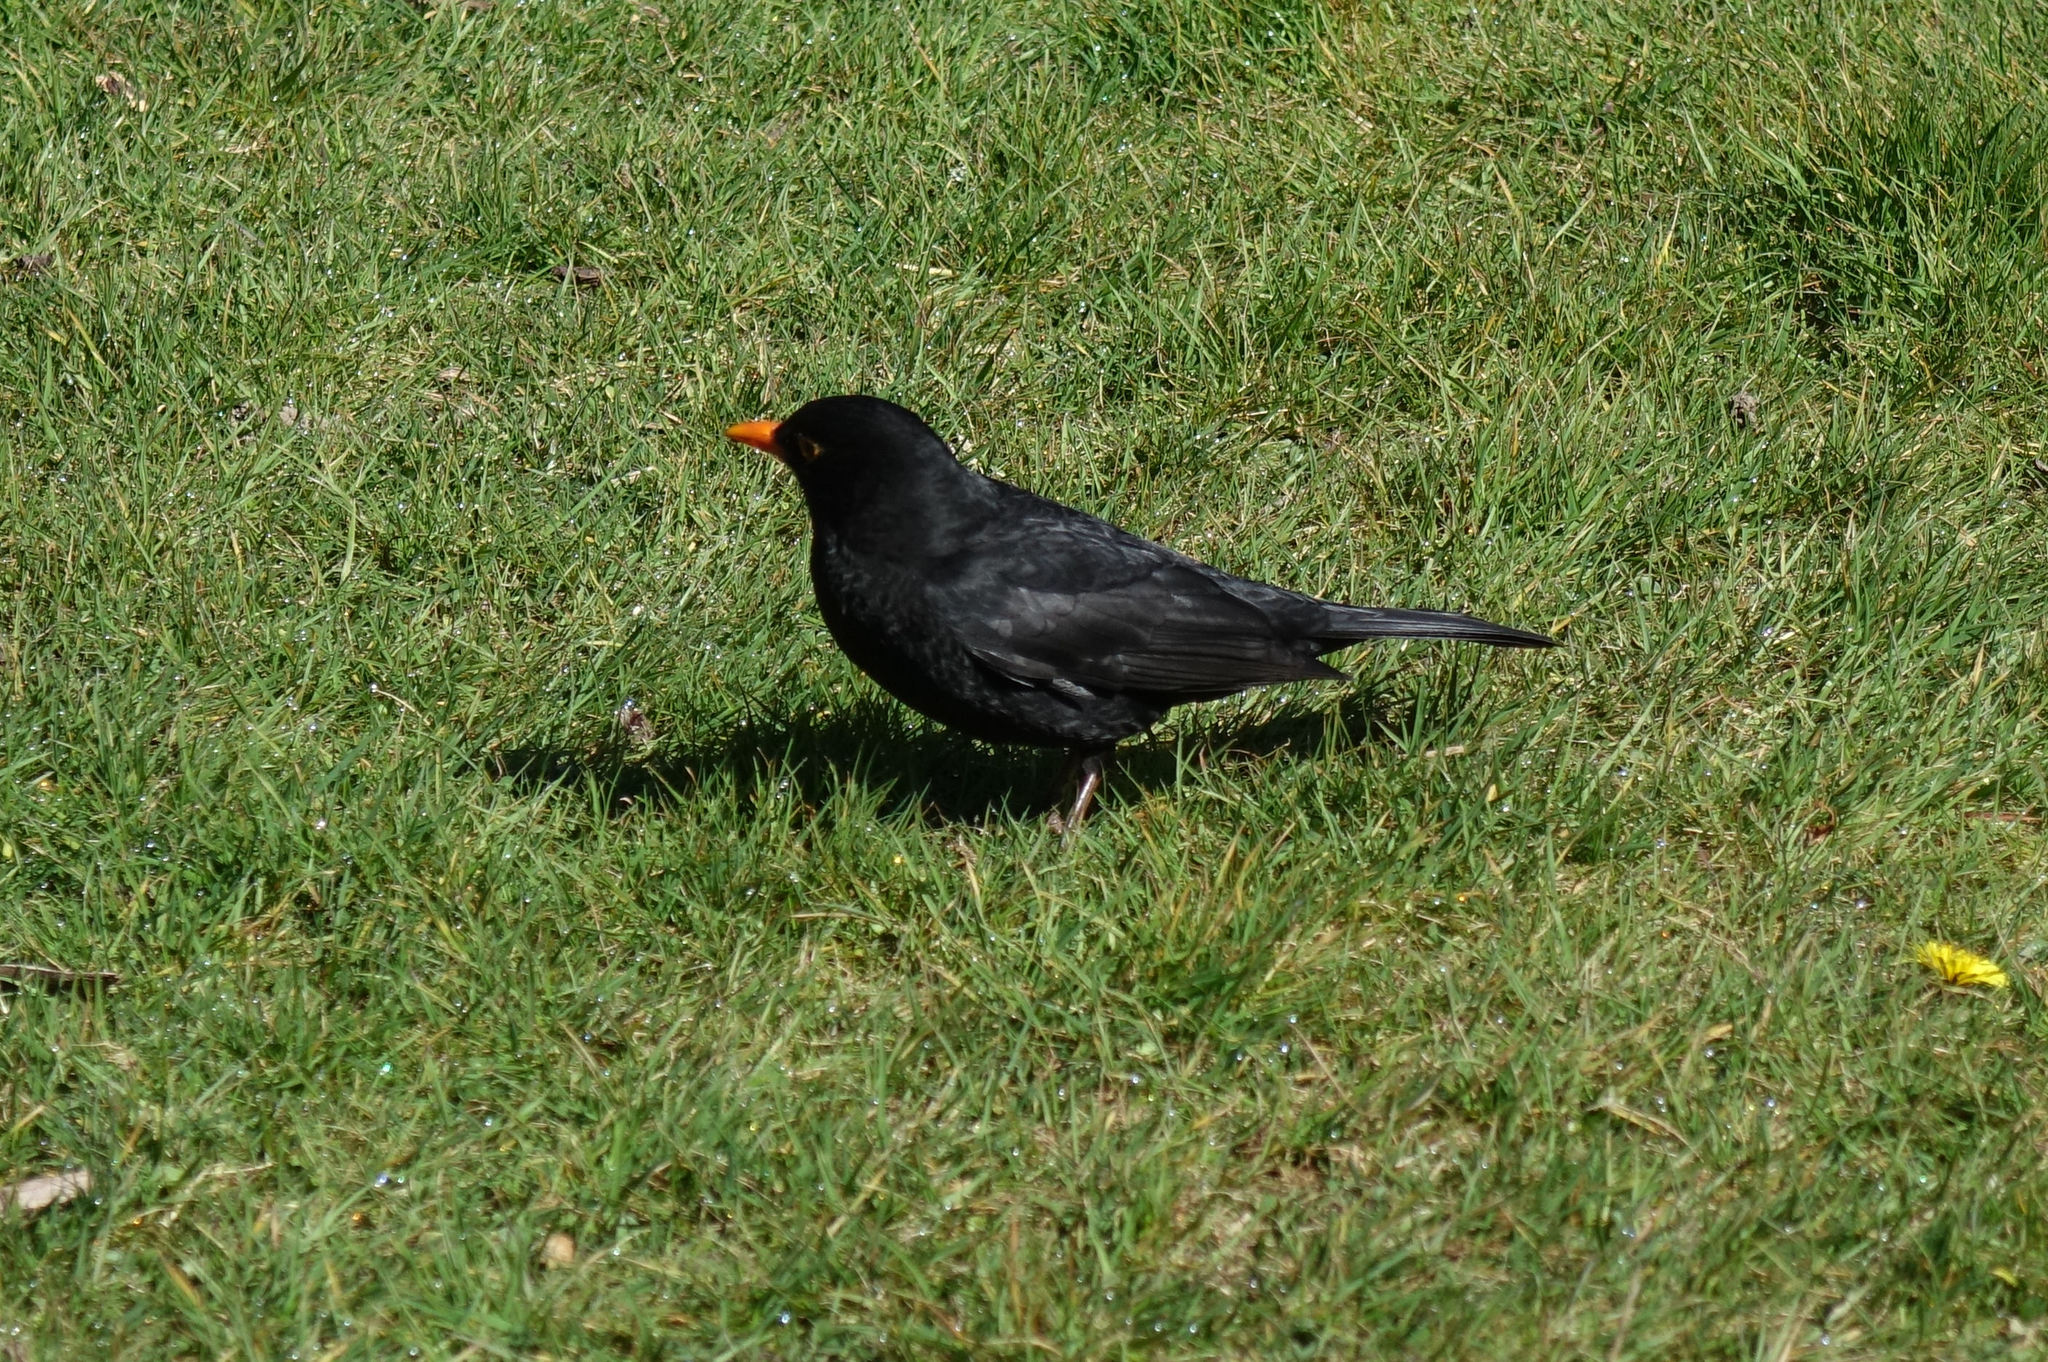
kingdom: Animalia
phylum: Chordata
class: Aves
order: Passeriformes
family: Turdidae
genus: Turdus
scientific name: Turdus merula
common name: Common blackbird
